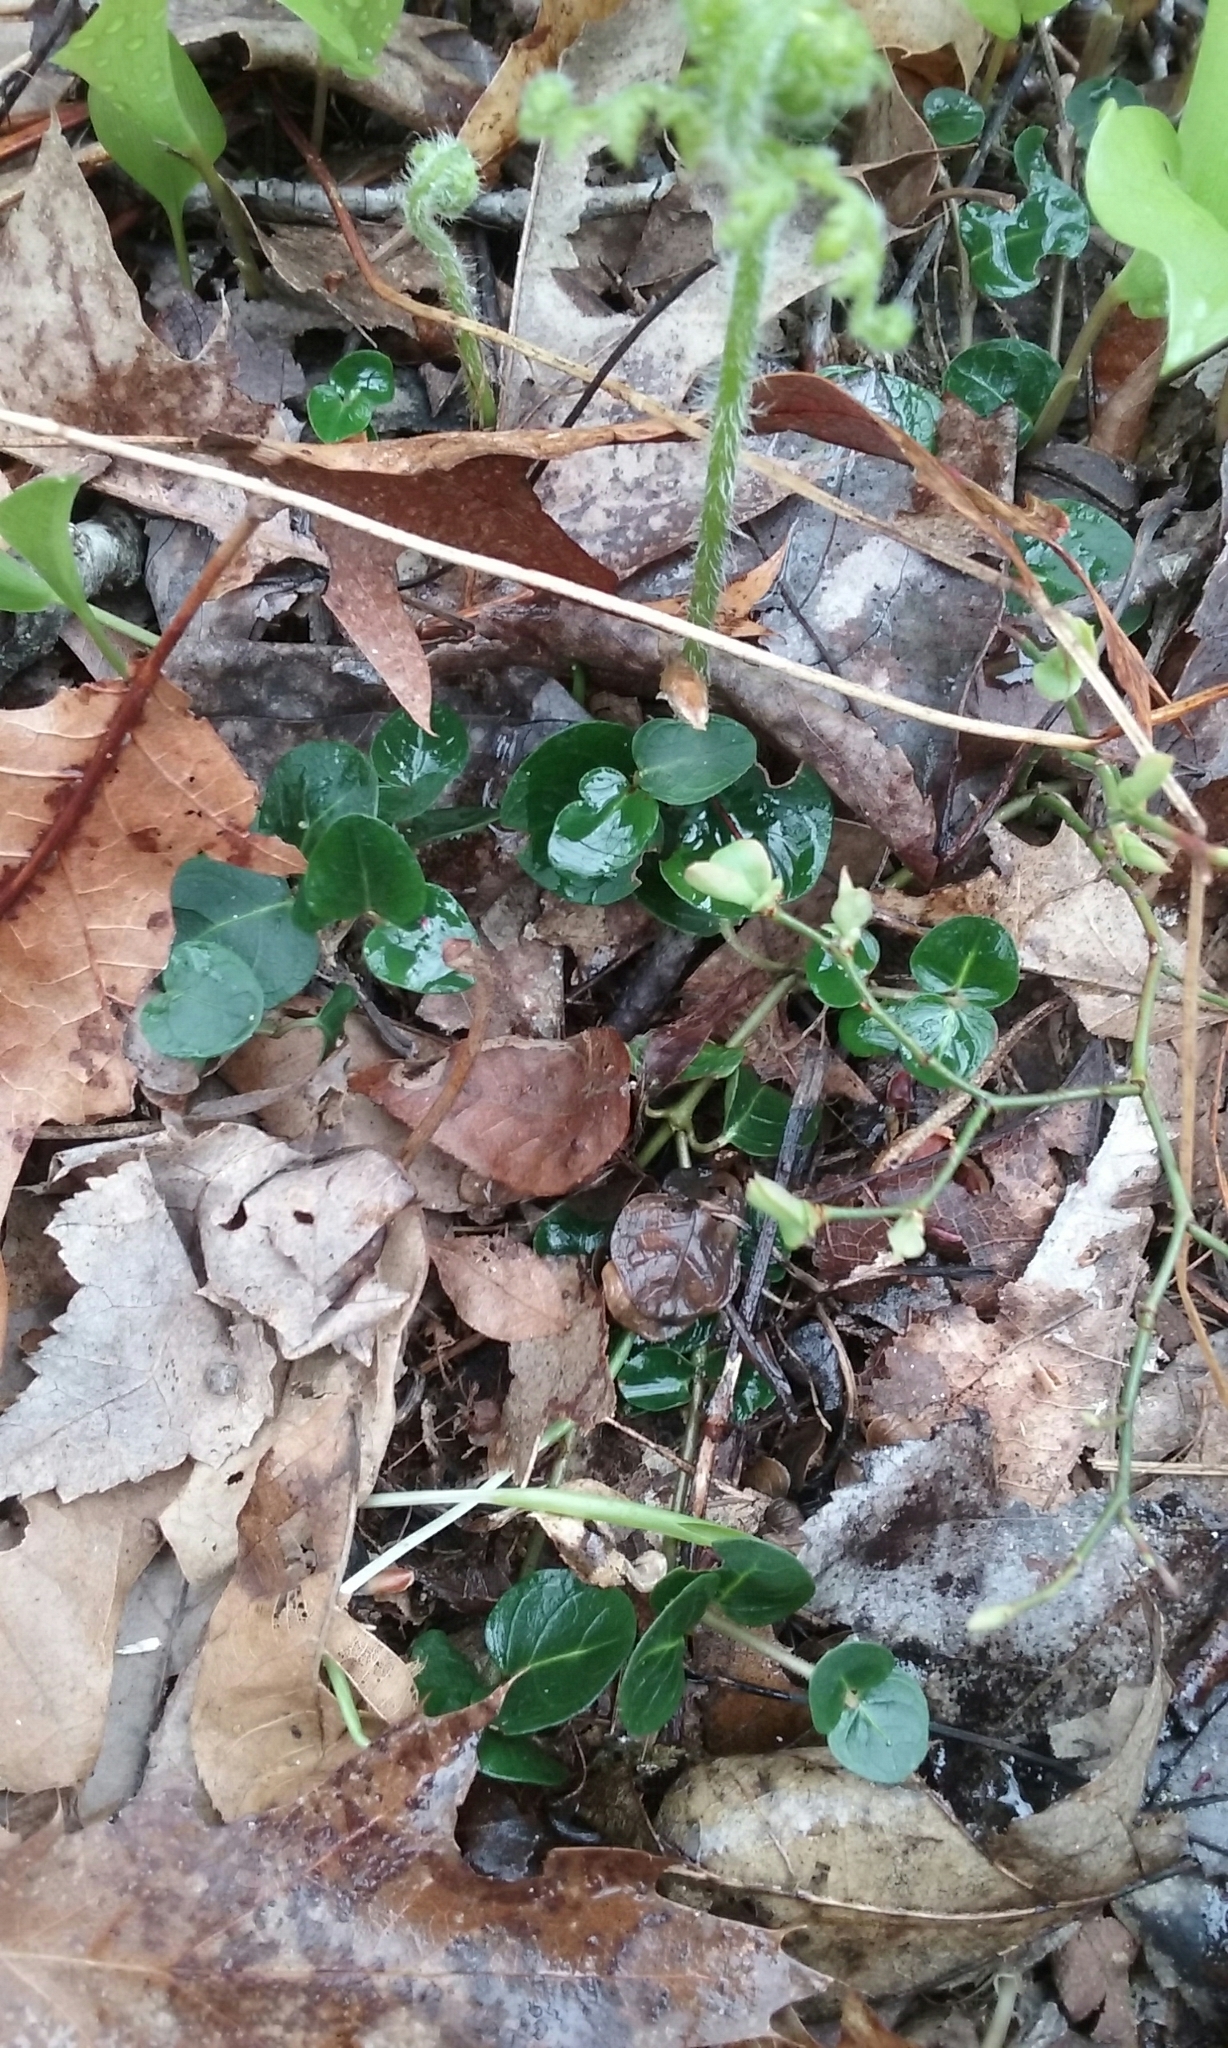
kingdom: Plantae
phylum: Tracheophyta
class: Magnoliopsida
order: Gentianales
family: Rubiaceae
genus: Mitchella
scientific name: Mitchella repens
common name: Partridge-berry
